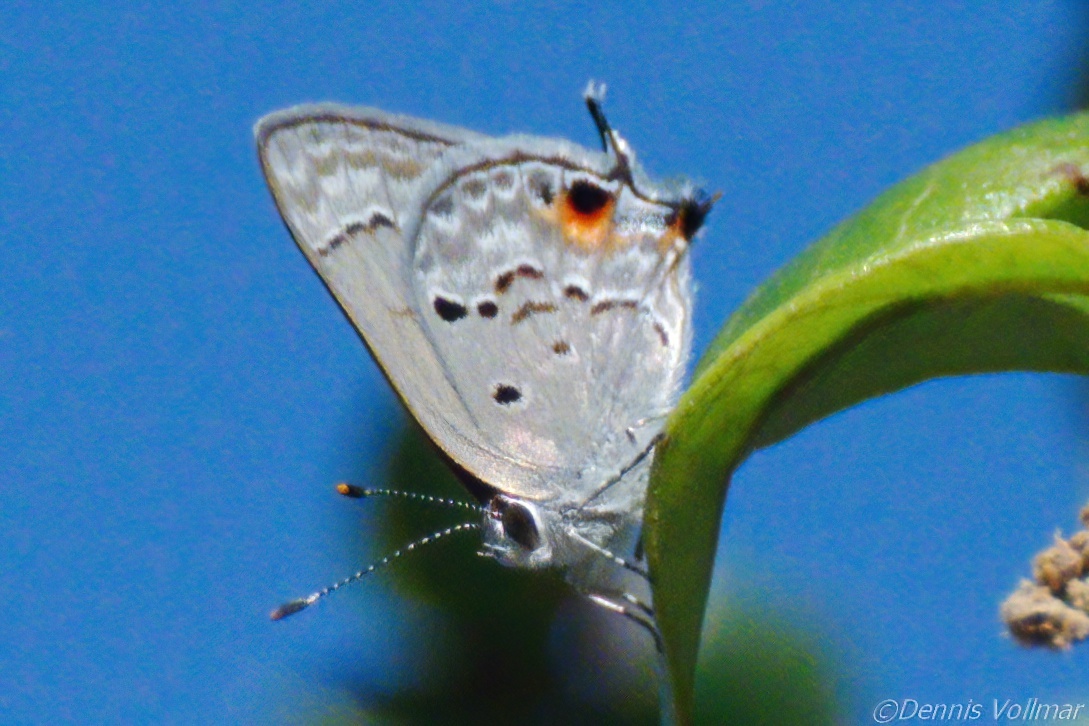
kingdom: Animalia
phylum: Arthropoda
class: Insecta
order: Lepidoptera
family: Lycaenidae
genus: Callicista
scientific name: Callicista columella
